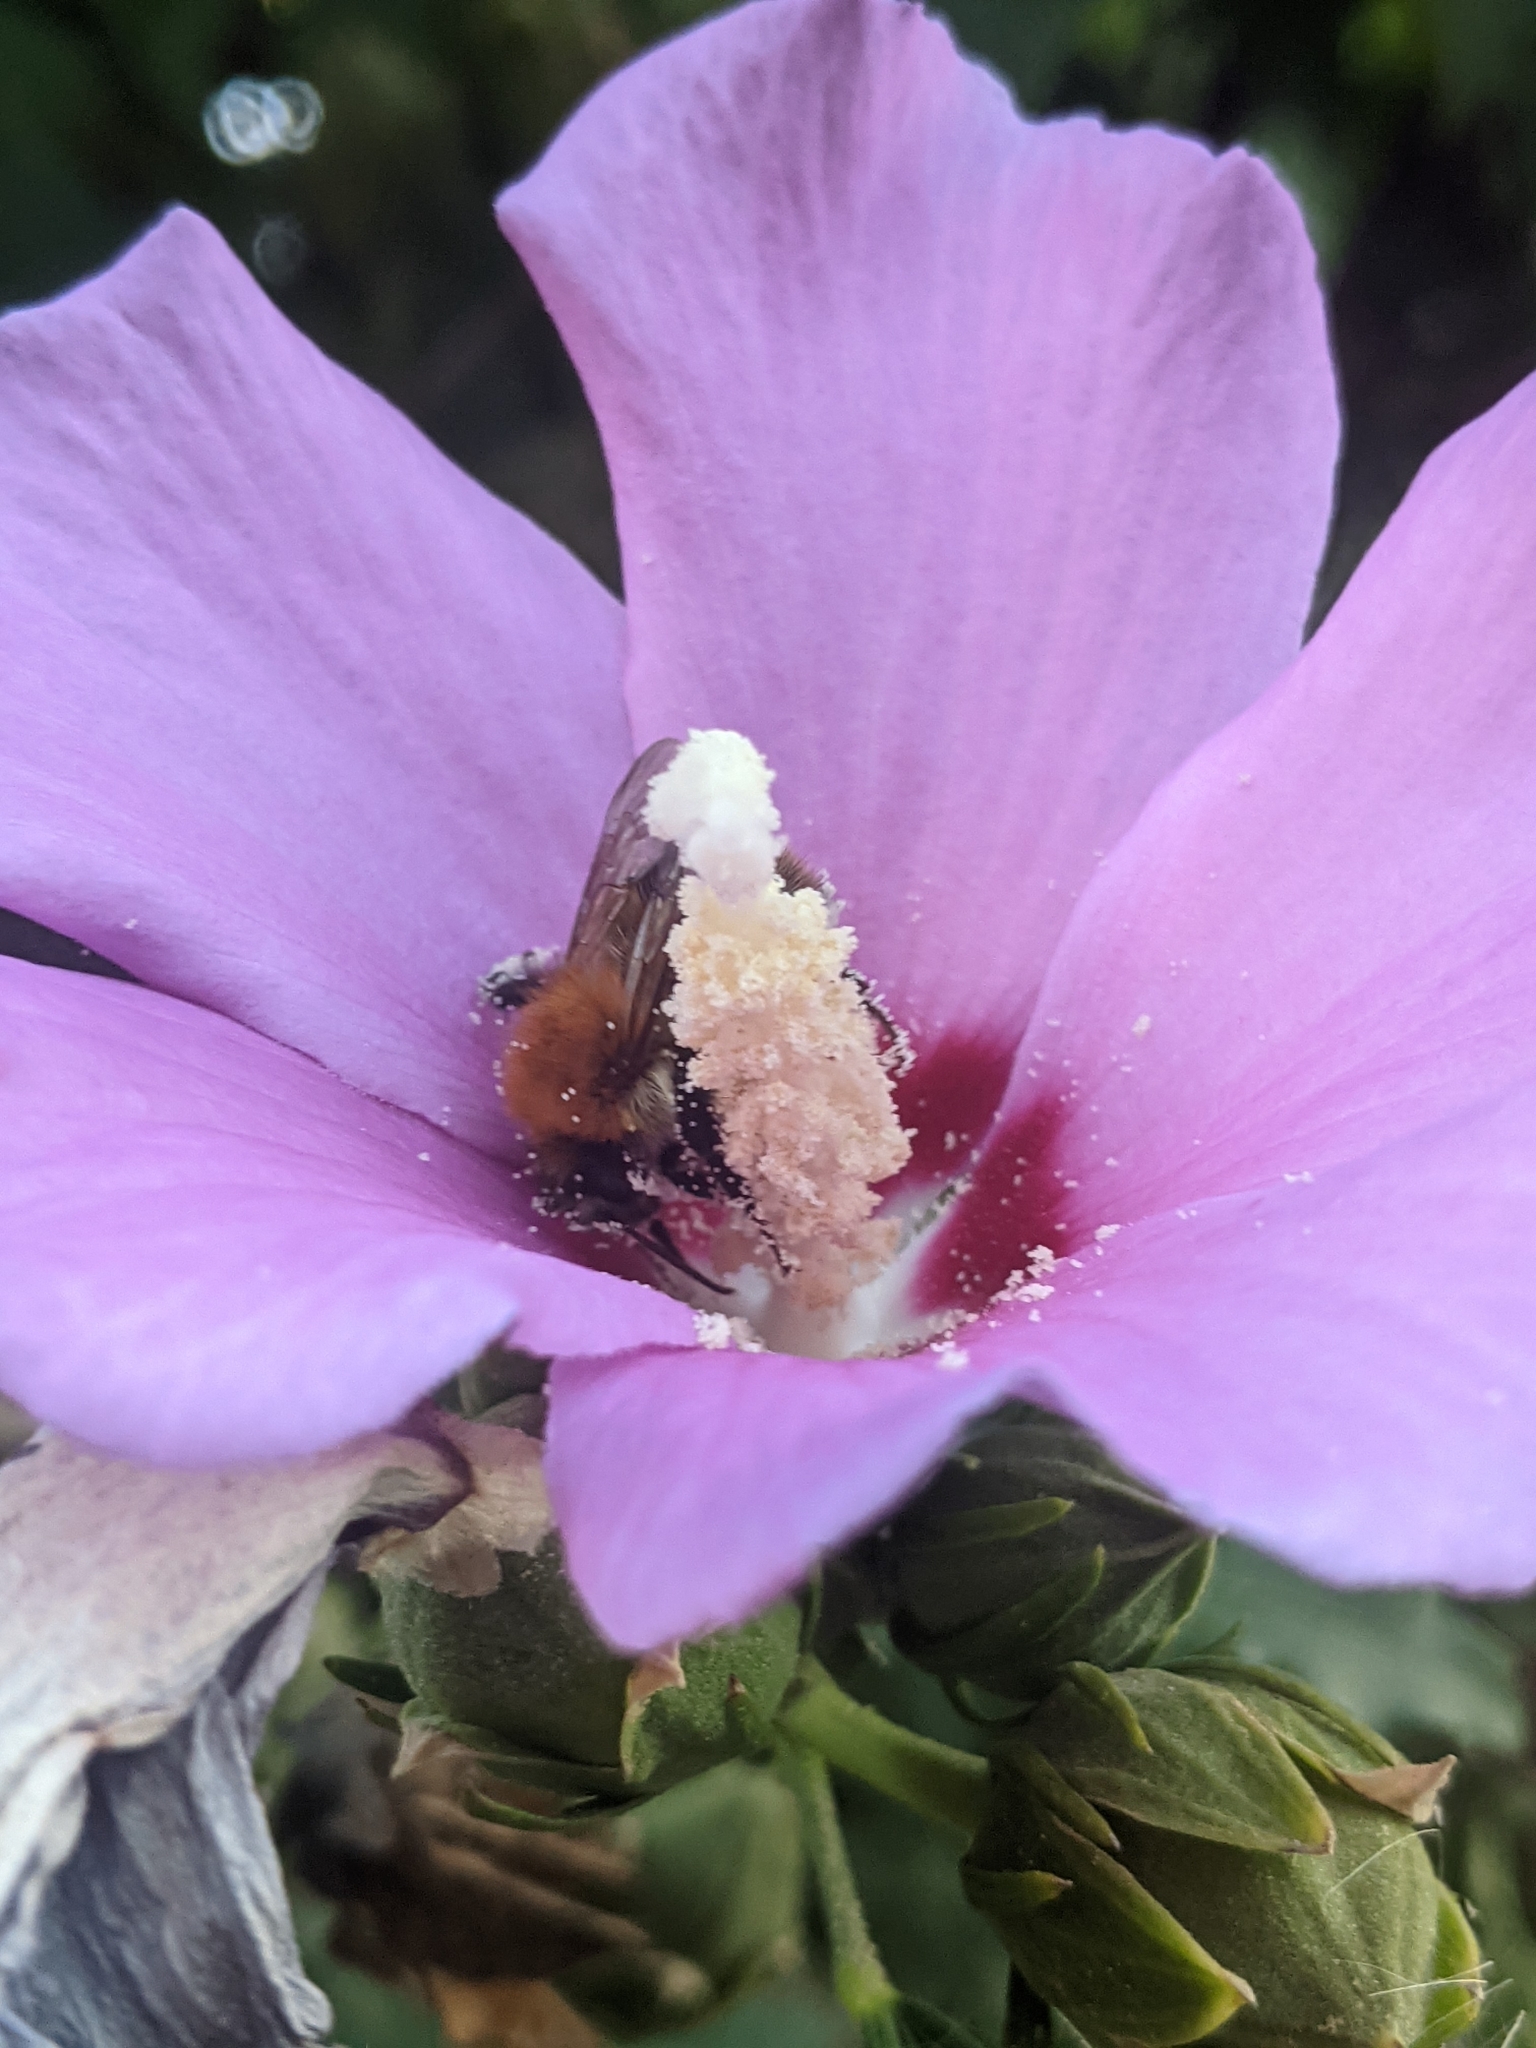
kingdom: Animalia
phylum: Arthropoda
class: Insecta
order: Hymenoptera
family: Apidae
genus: Bombus
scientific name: Bombus pascuorum
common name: Common carder bee
